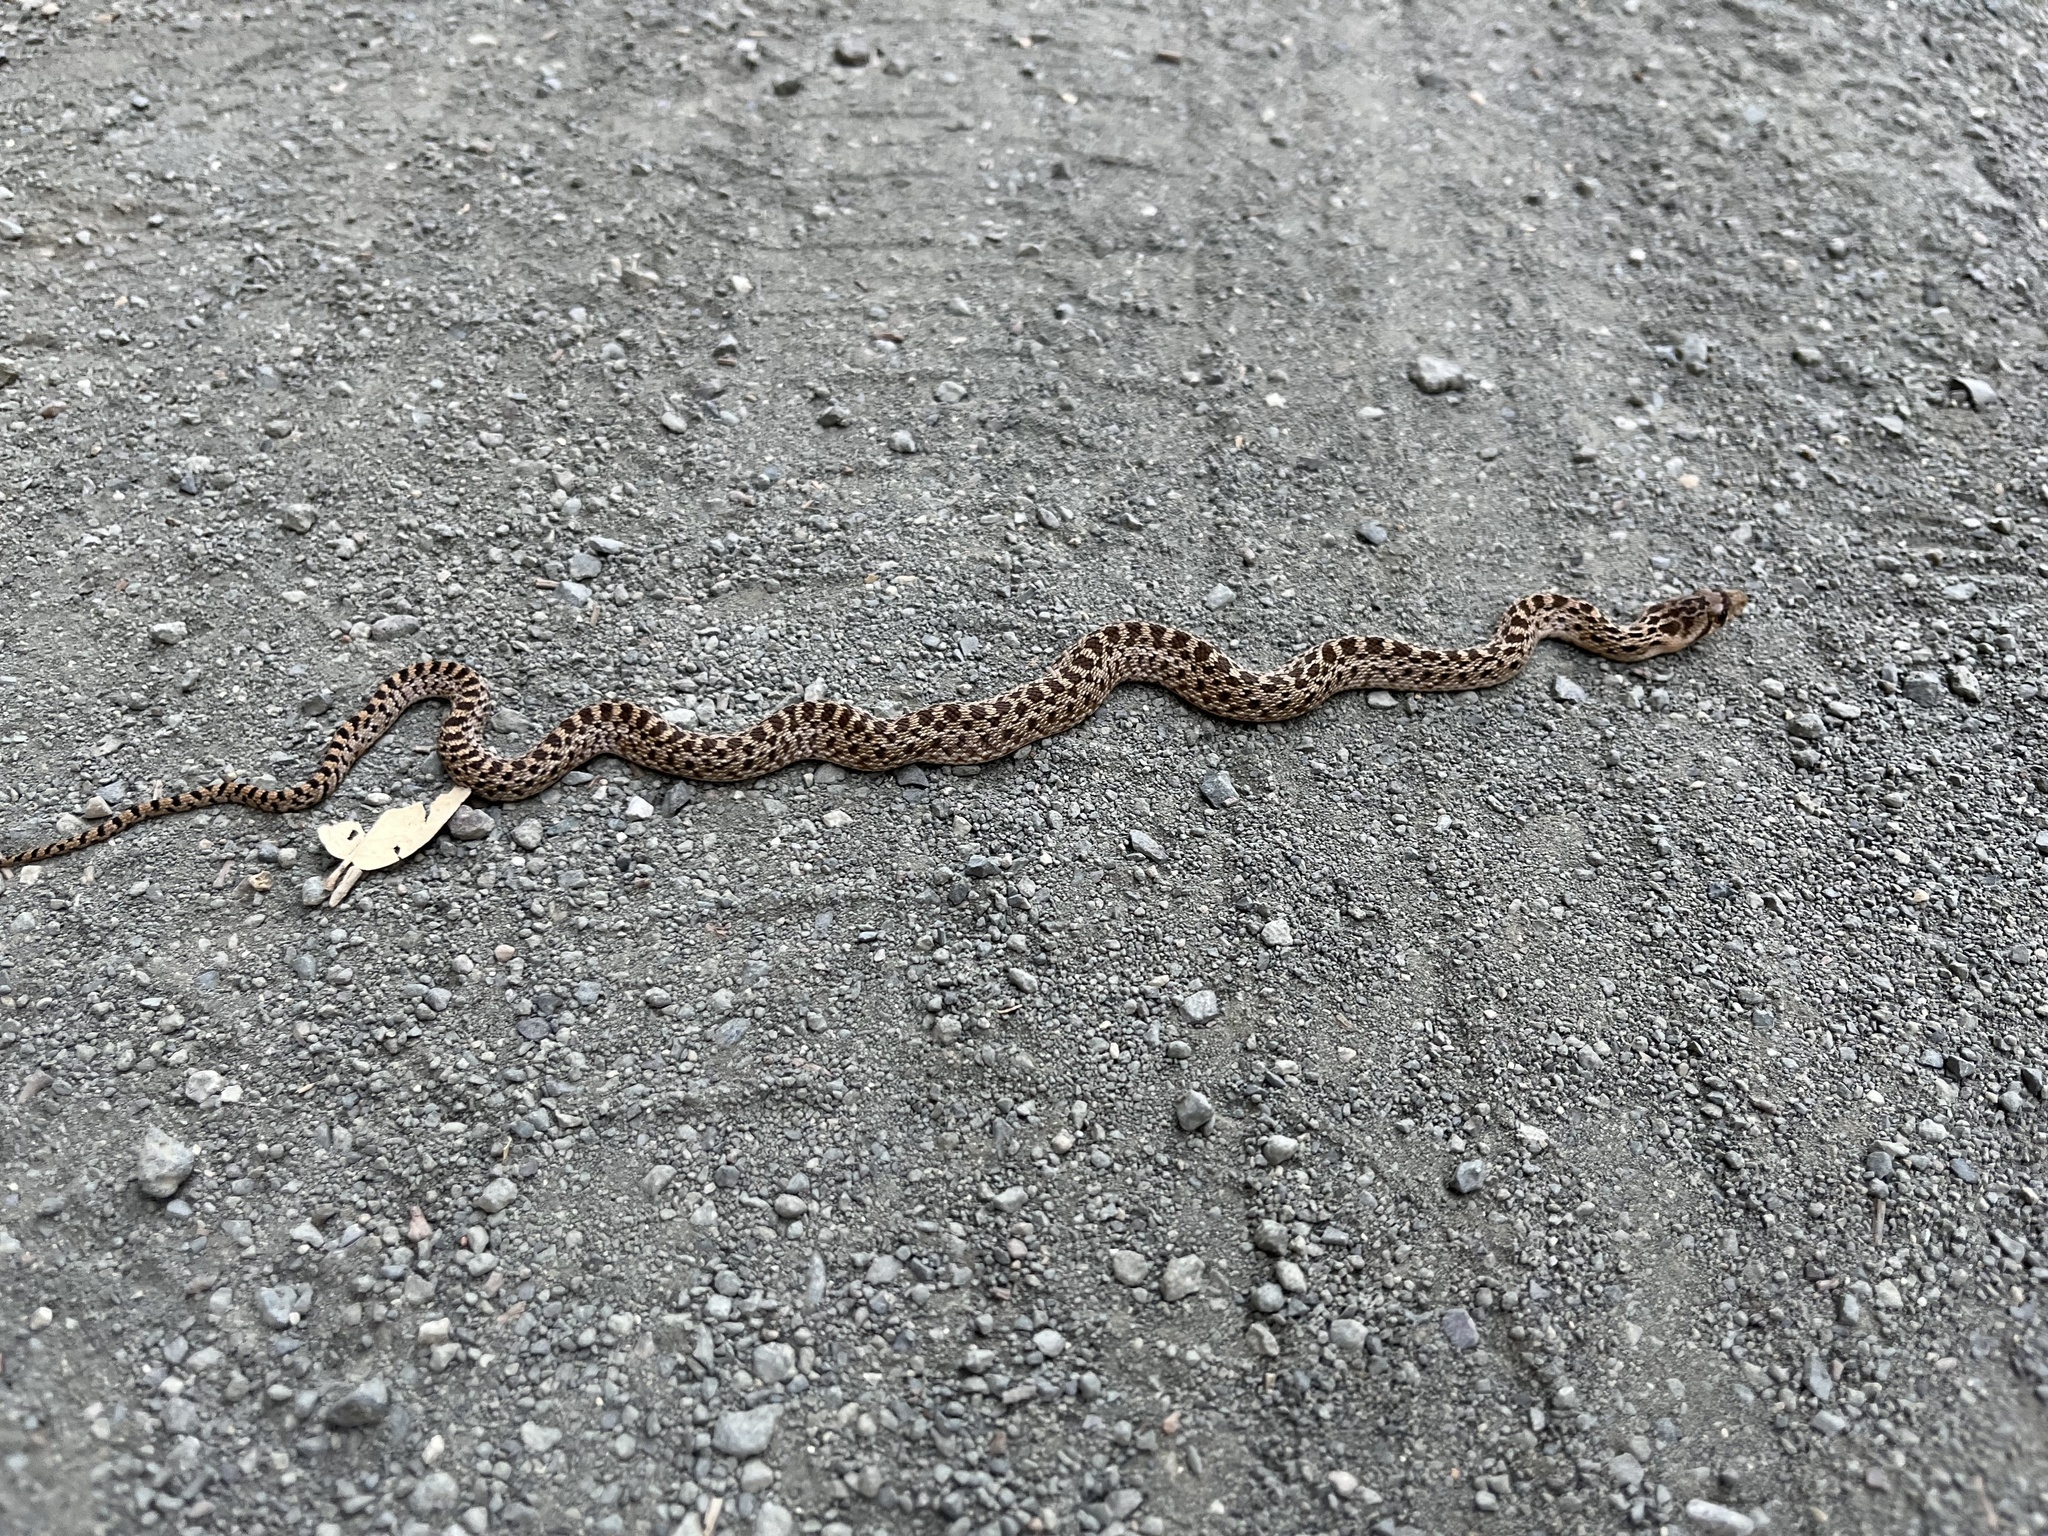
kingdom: Animalia
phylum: Chordata
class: Squamata
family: Colubridae
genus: Pituophis
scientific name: Pituophis catenifer
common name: Gopher snake
